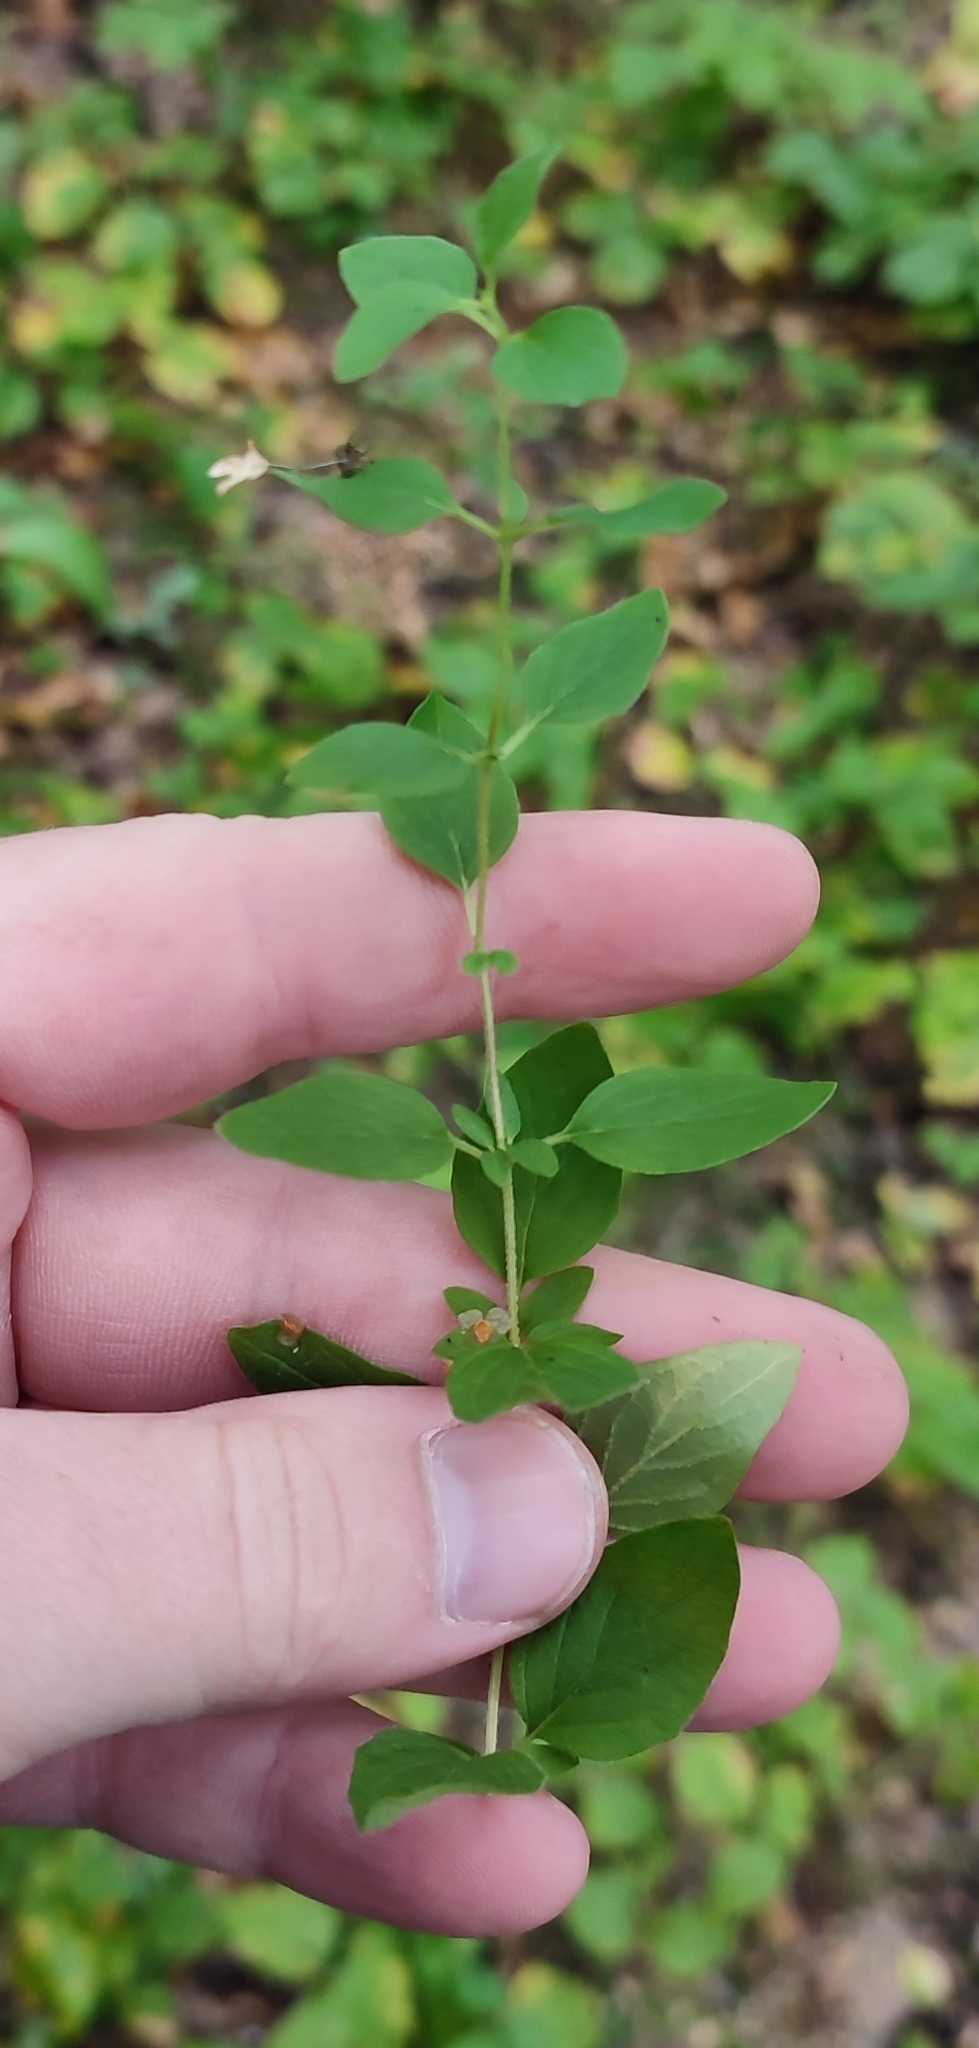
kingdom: Plantae
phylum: Tracheophyta
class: Magnoliopsida
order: Lamiales
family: Lamiaceae
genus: Origanum
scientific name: Origanum vulgare
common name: Wild marjoram
